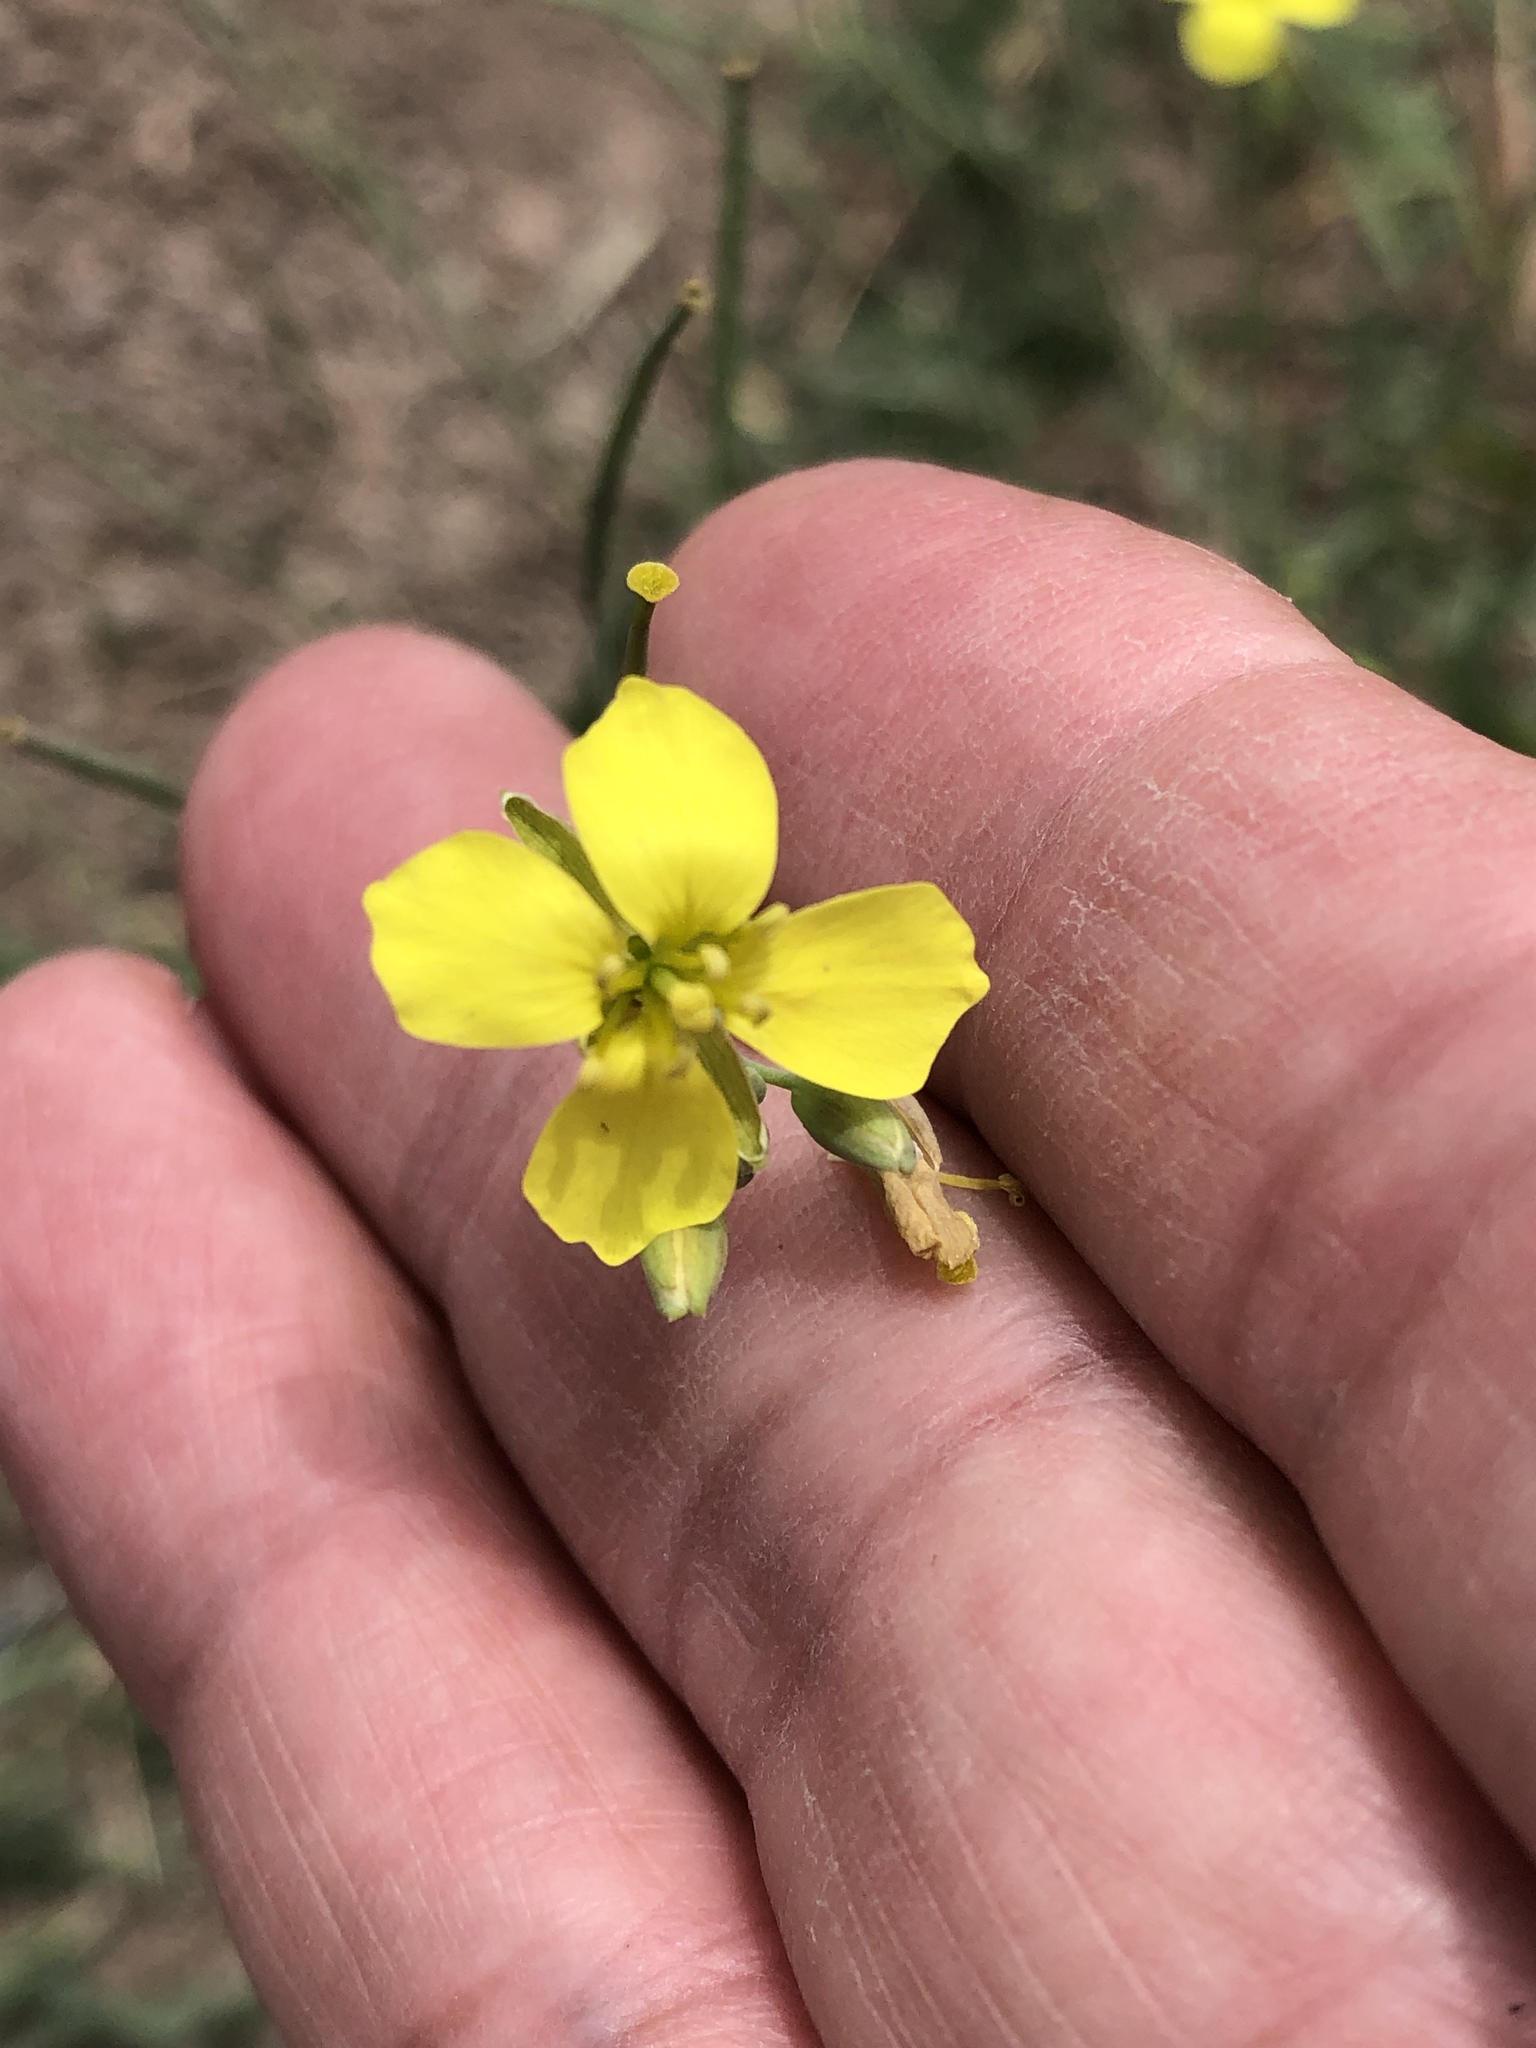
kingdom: Plantae
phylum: Tracheophyta
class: Magnoliopsida
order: Brassicales
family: Brassicaceae
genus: Diplotaxis
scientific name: Diplotaxis tenuifolia
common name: Perennial wall-rocket
